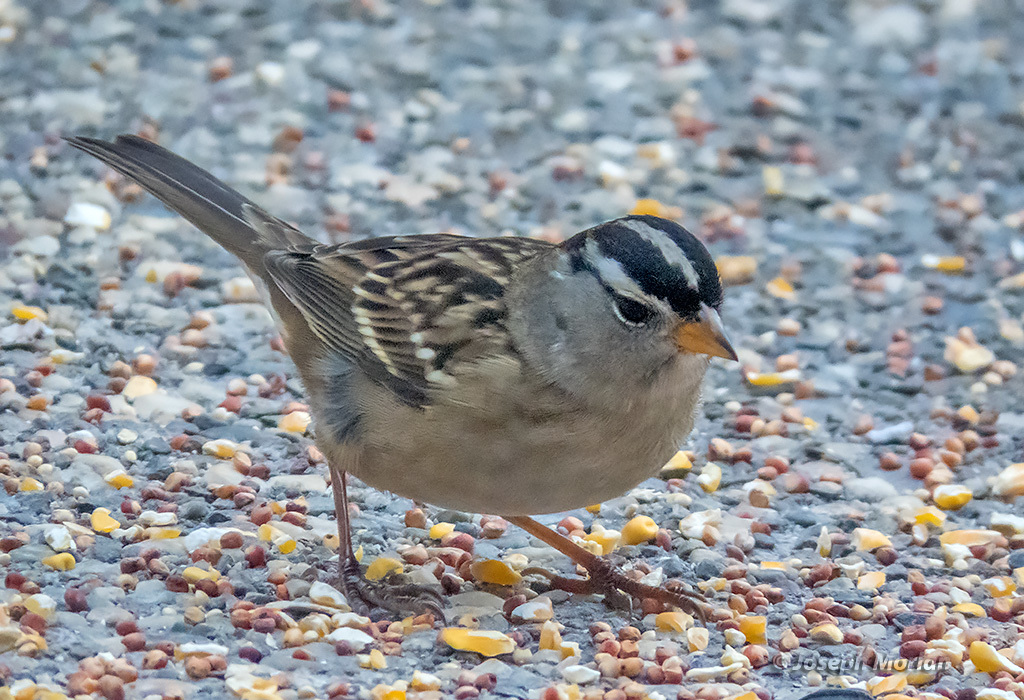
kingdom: Animalia
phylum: Chordata
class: Aves
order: Passeriformes
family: Passerellidae
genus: Zonotrichia
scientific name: Zonotrichia leucophrys
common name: White-crowned sparrow
